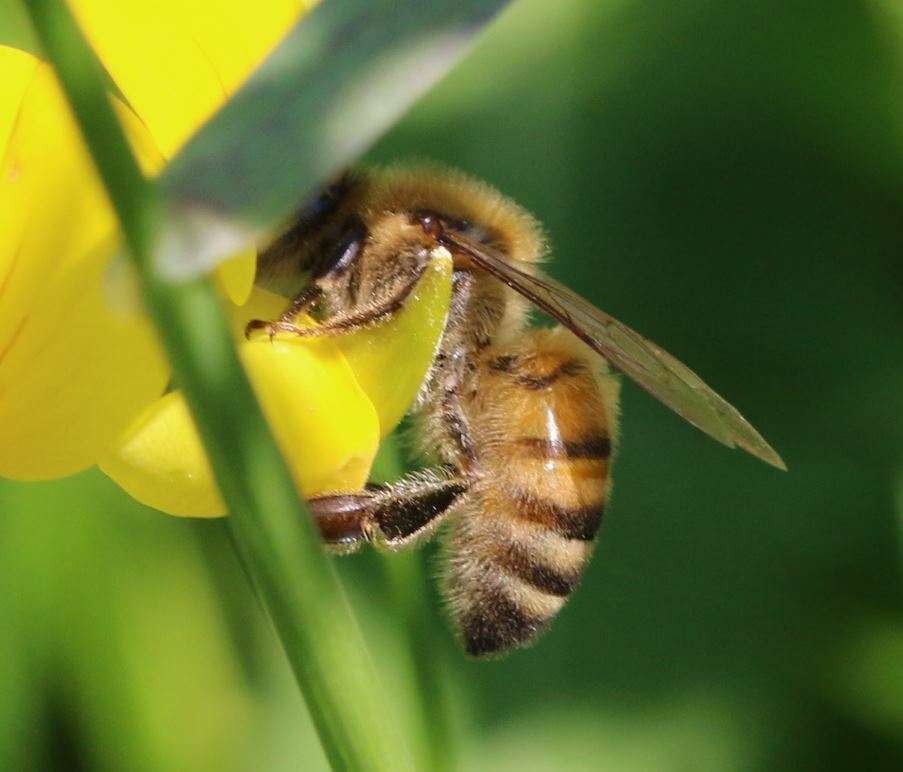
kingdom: Animalia
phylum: Arthropoda
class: Insecta
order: Hymenoptera
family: Apidae
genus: Apis
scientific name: Apis mellifera
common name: Honey bee
